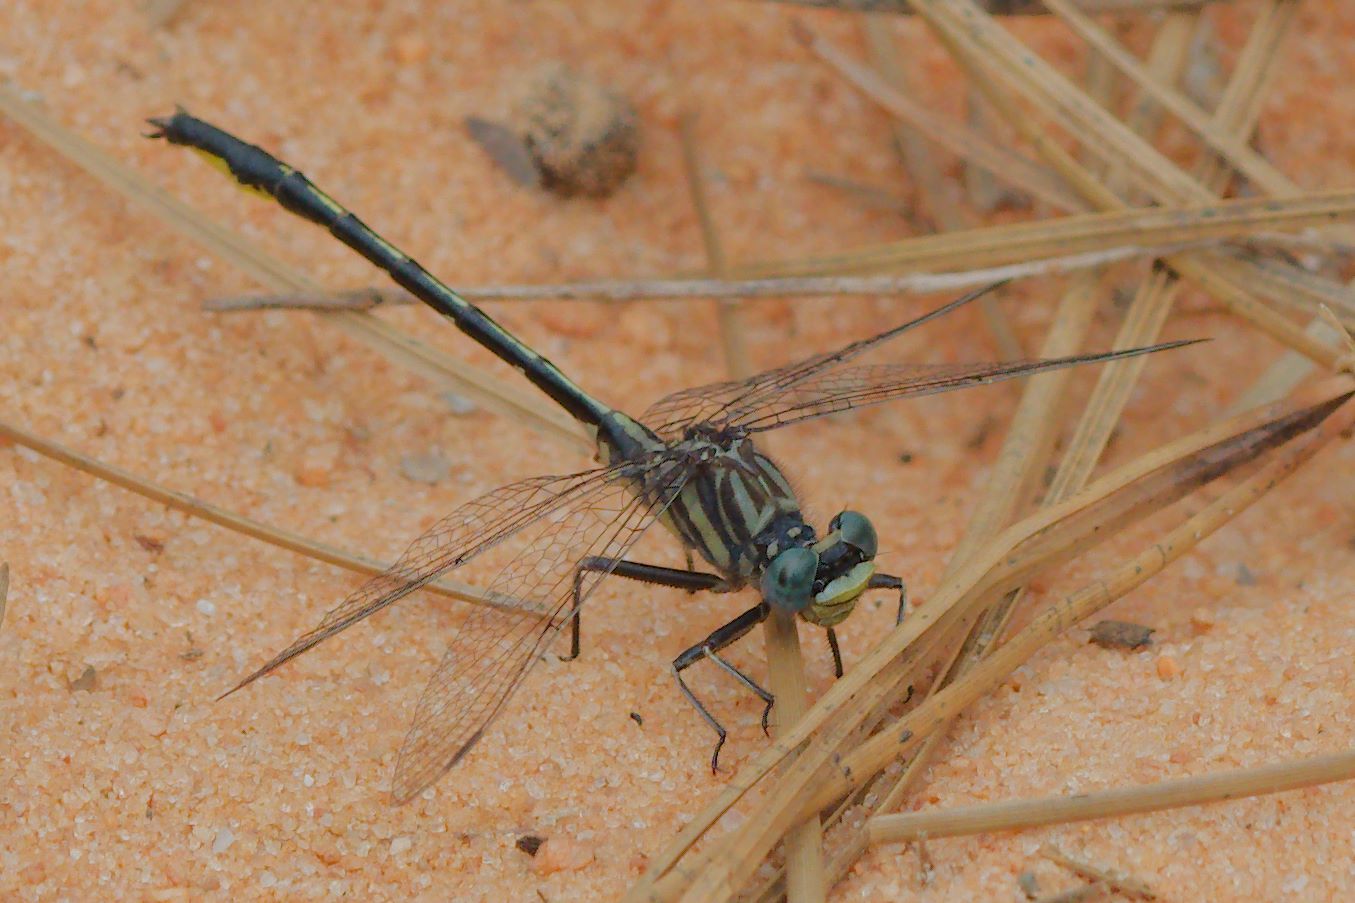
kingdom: Animalia
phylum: Arthropoda
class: Insecta
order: Odonata
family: Gomphidae
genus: Phanogomphus
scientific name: Phanogomphus westfalli
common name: Westfall’s clubtail
